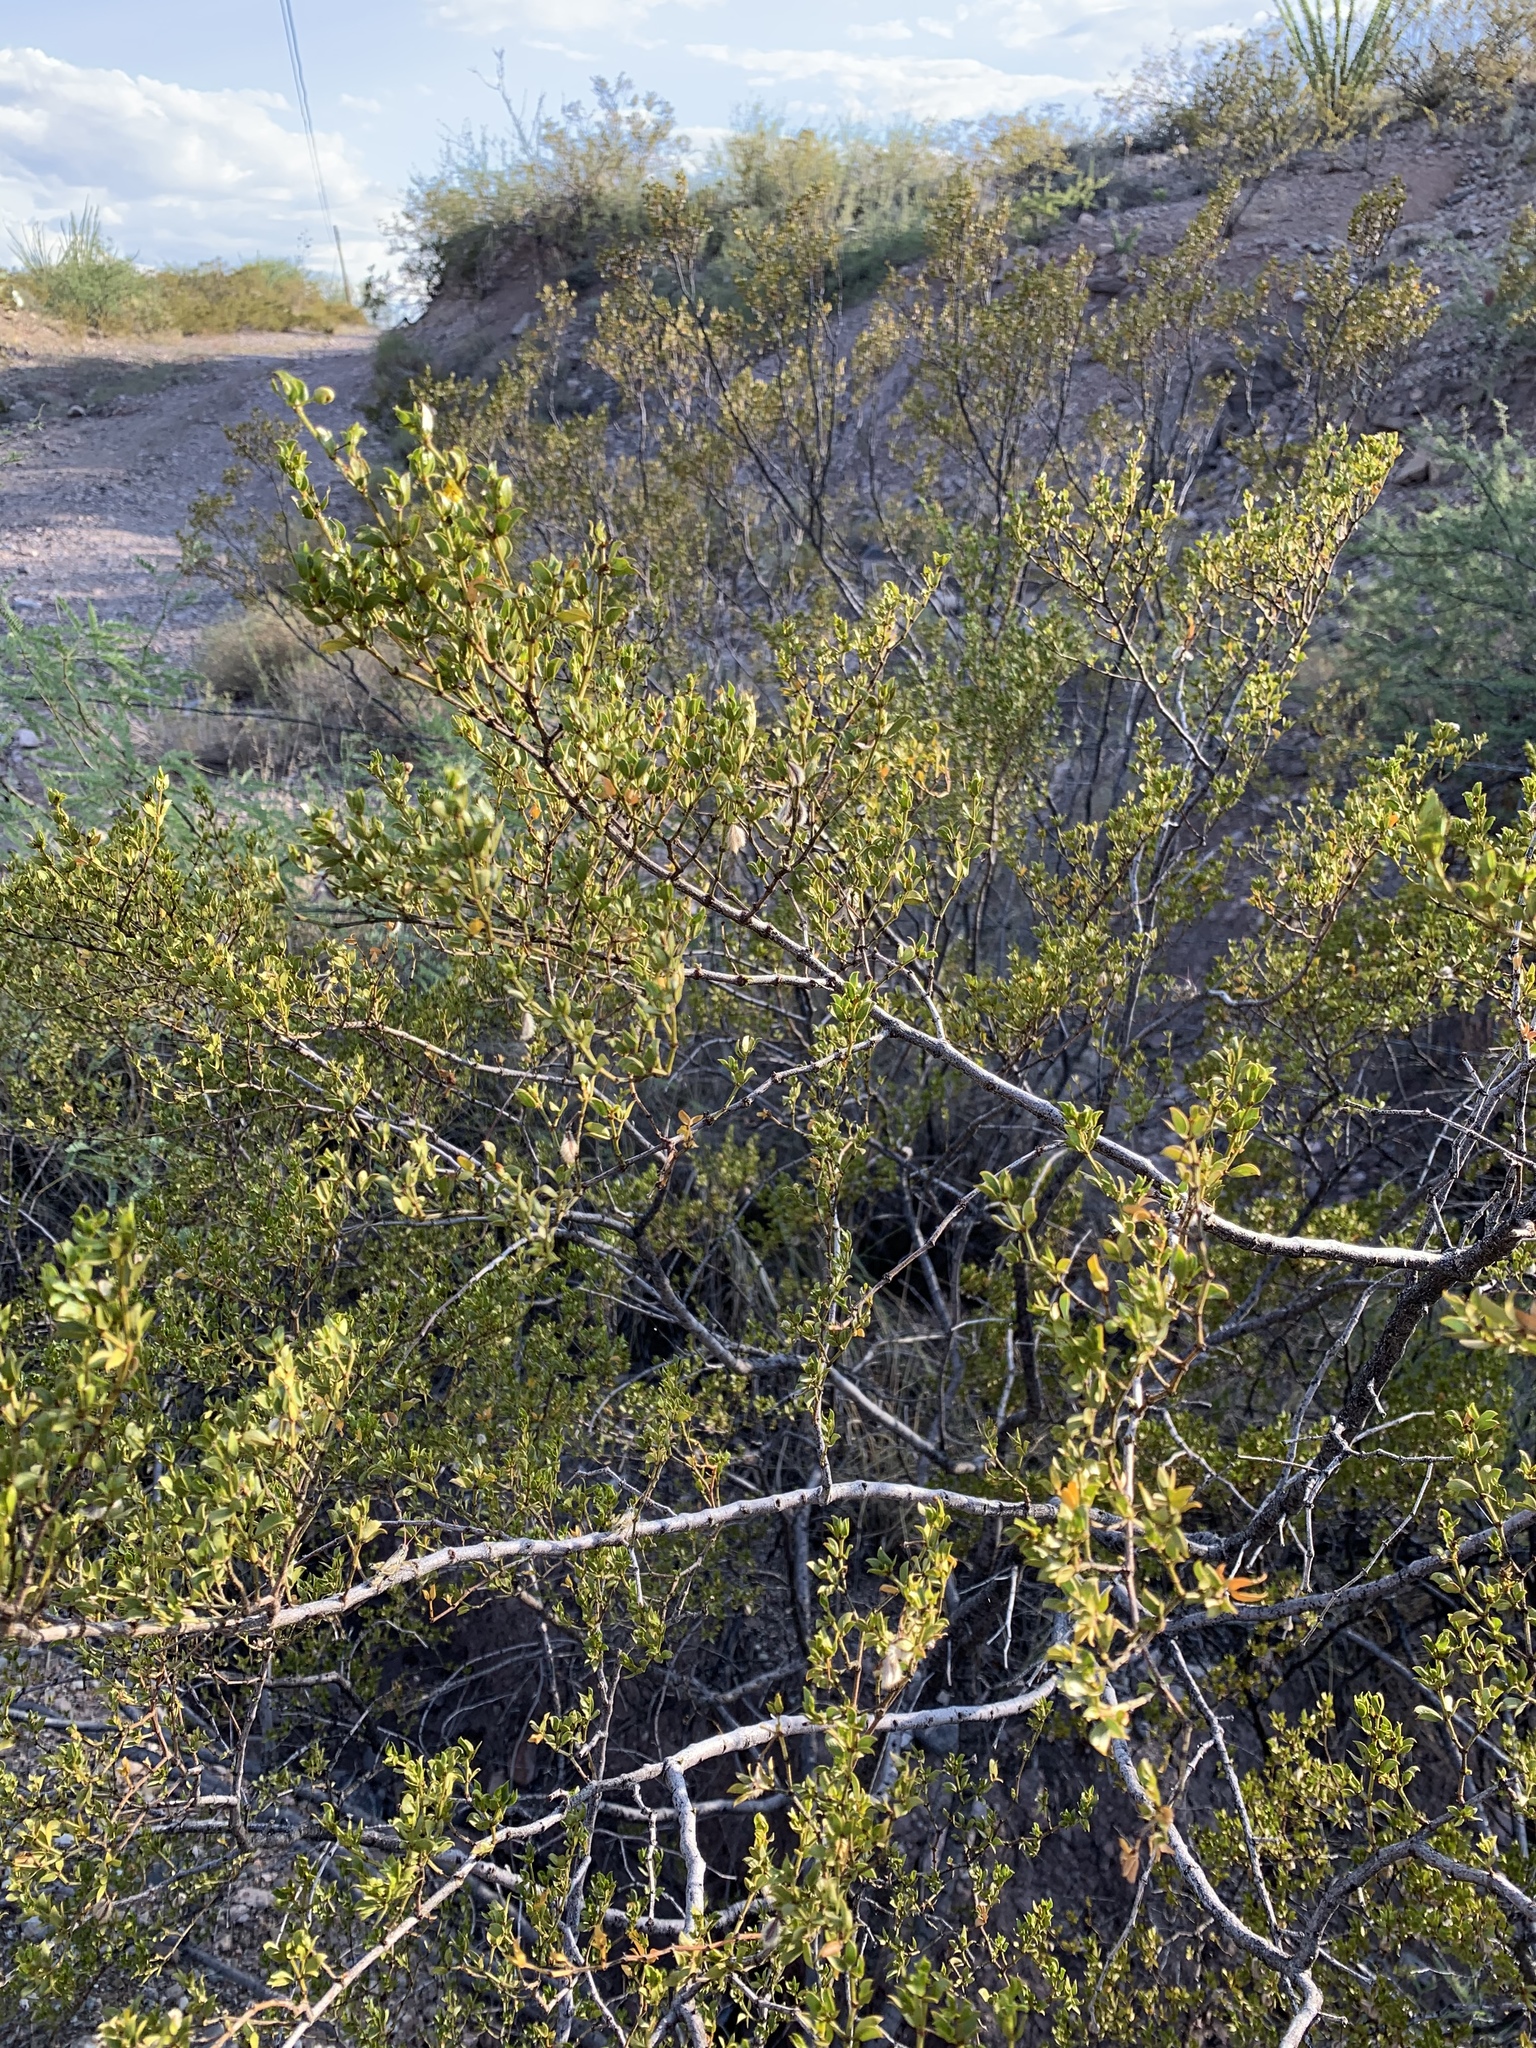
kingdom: Plantae
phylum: Tracheophyta
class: Magnoliopsida
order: Zygophyllales
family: Zygophyllaceae
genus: Larrea
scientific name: Larrea tridentata
